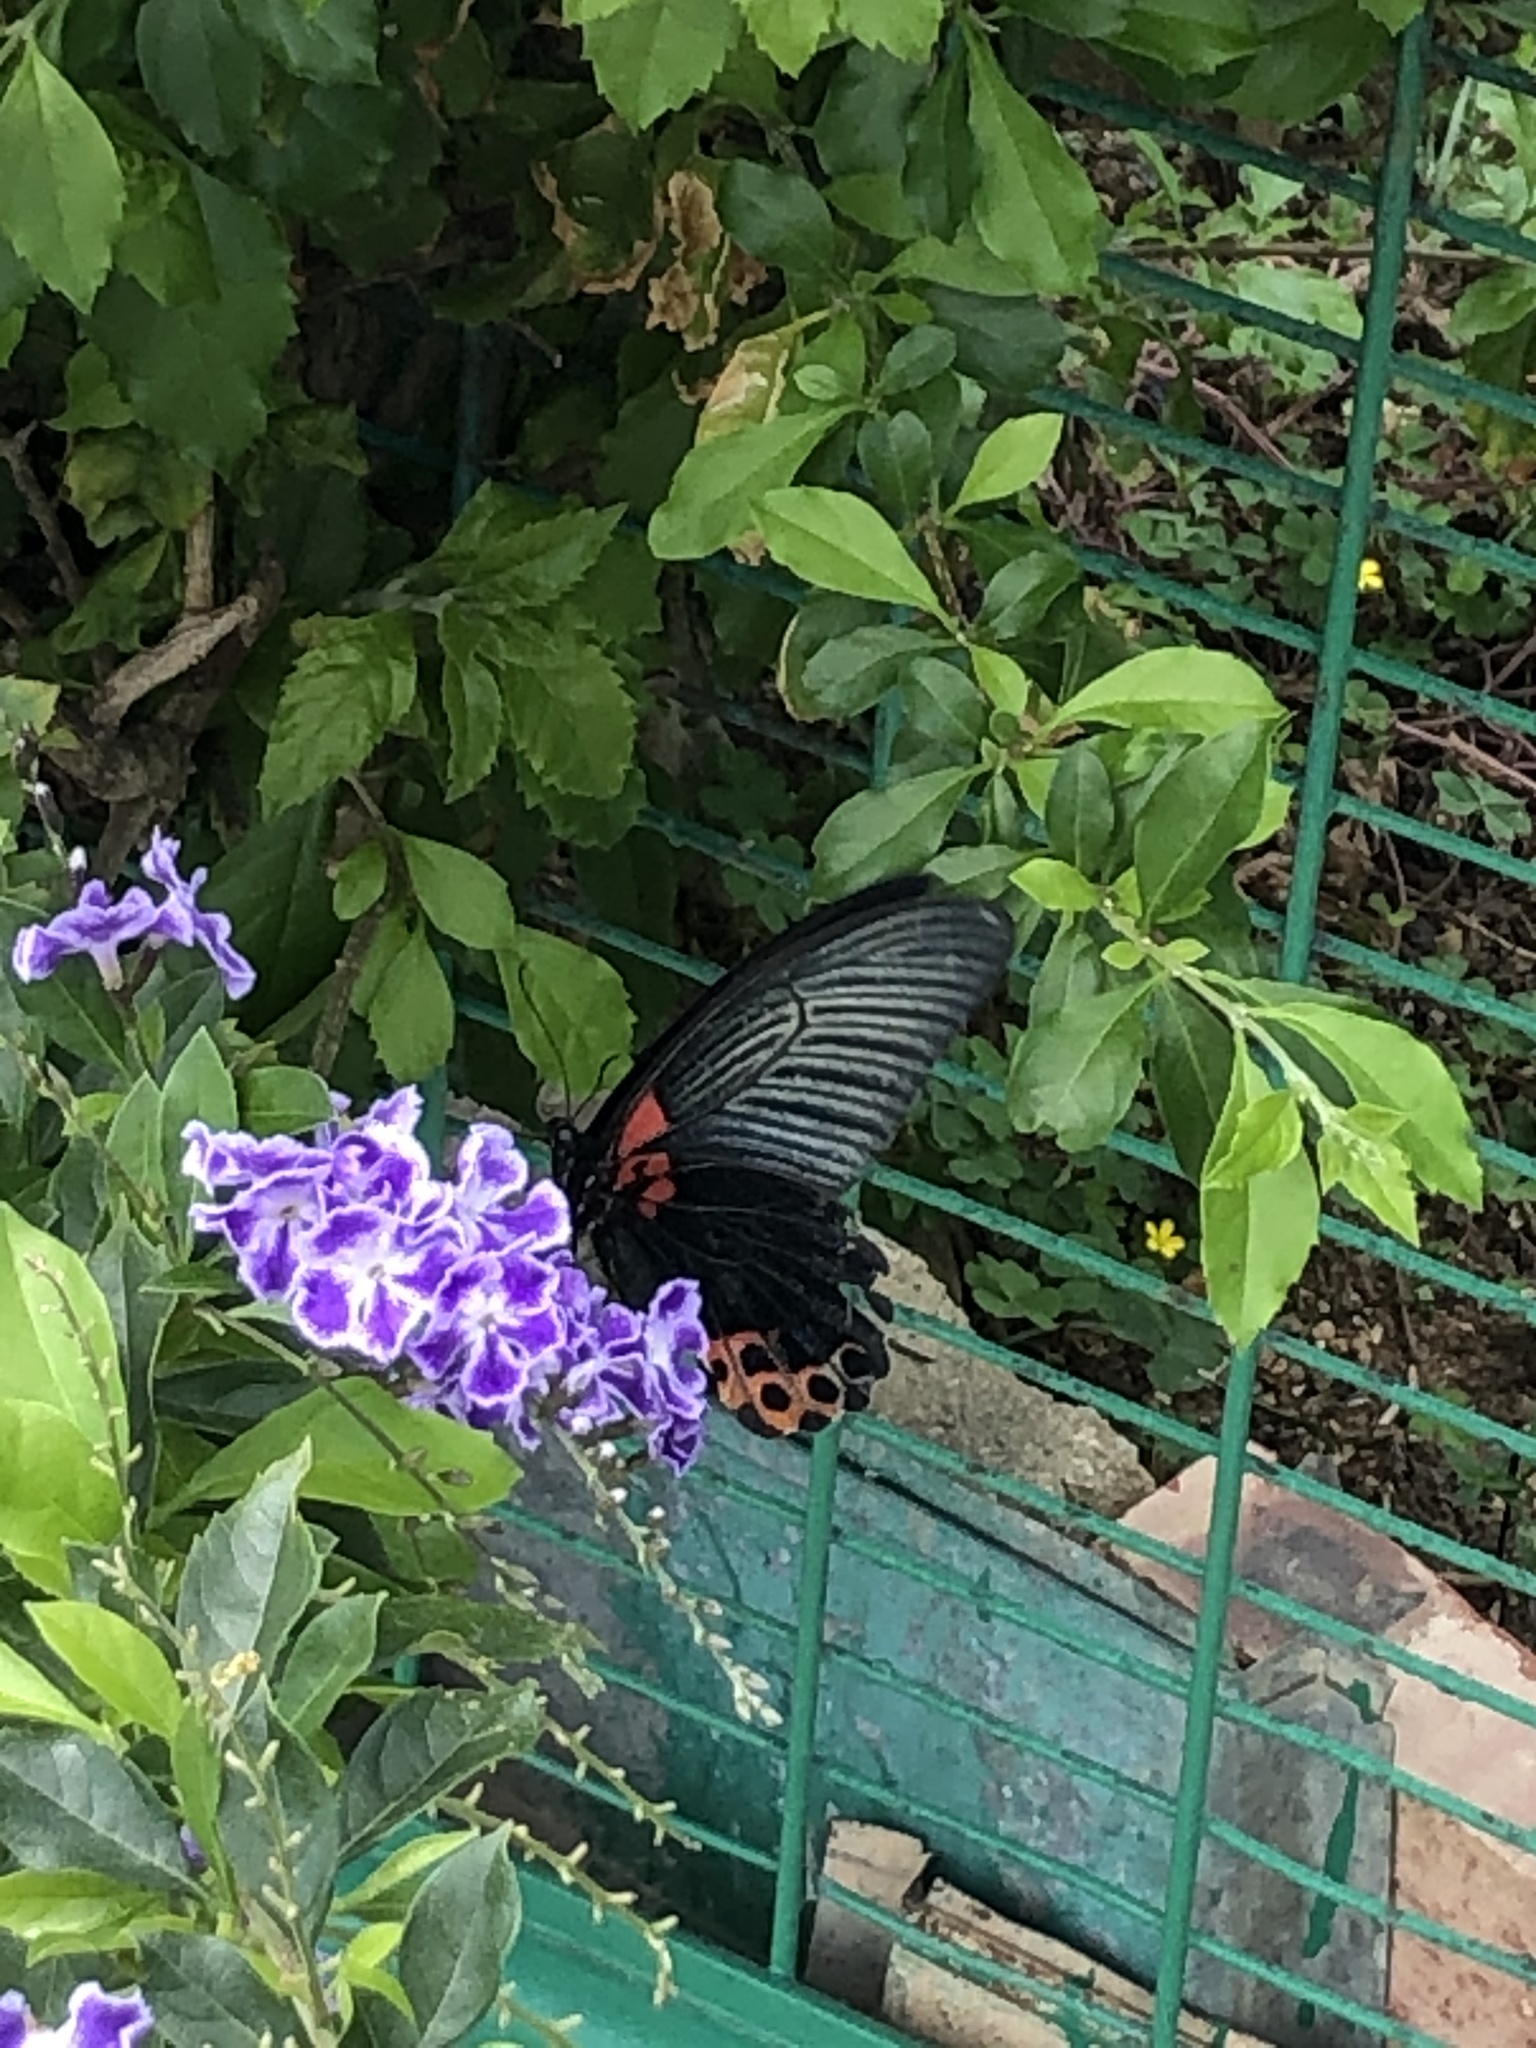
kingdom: Animalia
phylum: Arthropoda
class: Insecta
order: Lepidoptera
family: Papilionidae
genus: Papilio
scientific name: Papilio memnon
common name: Great mormon
